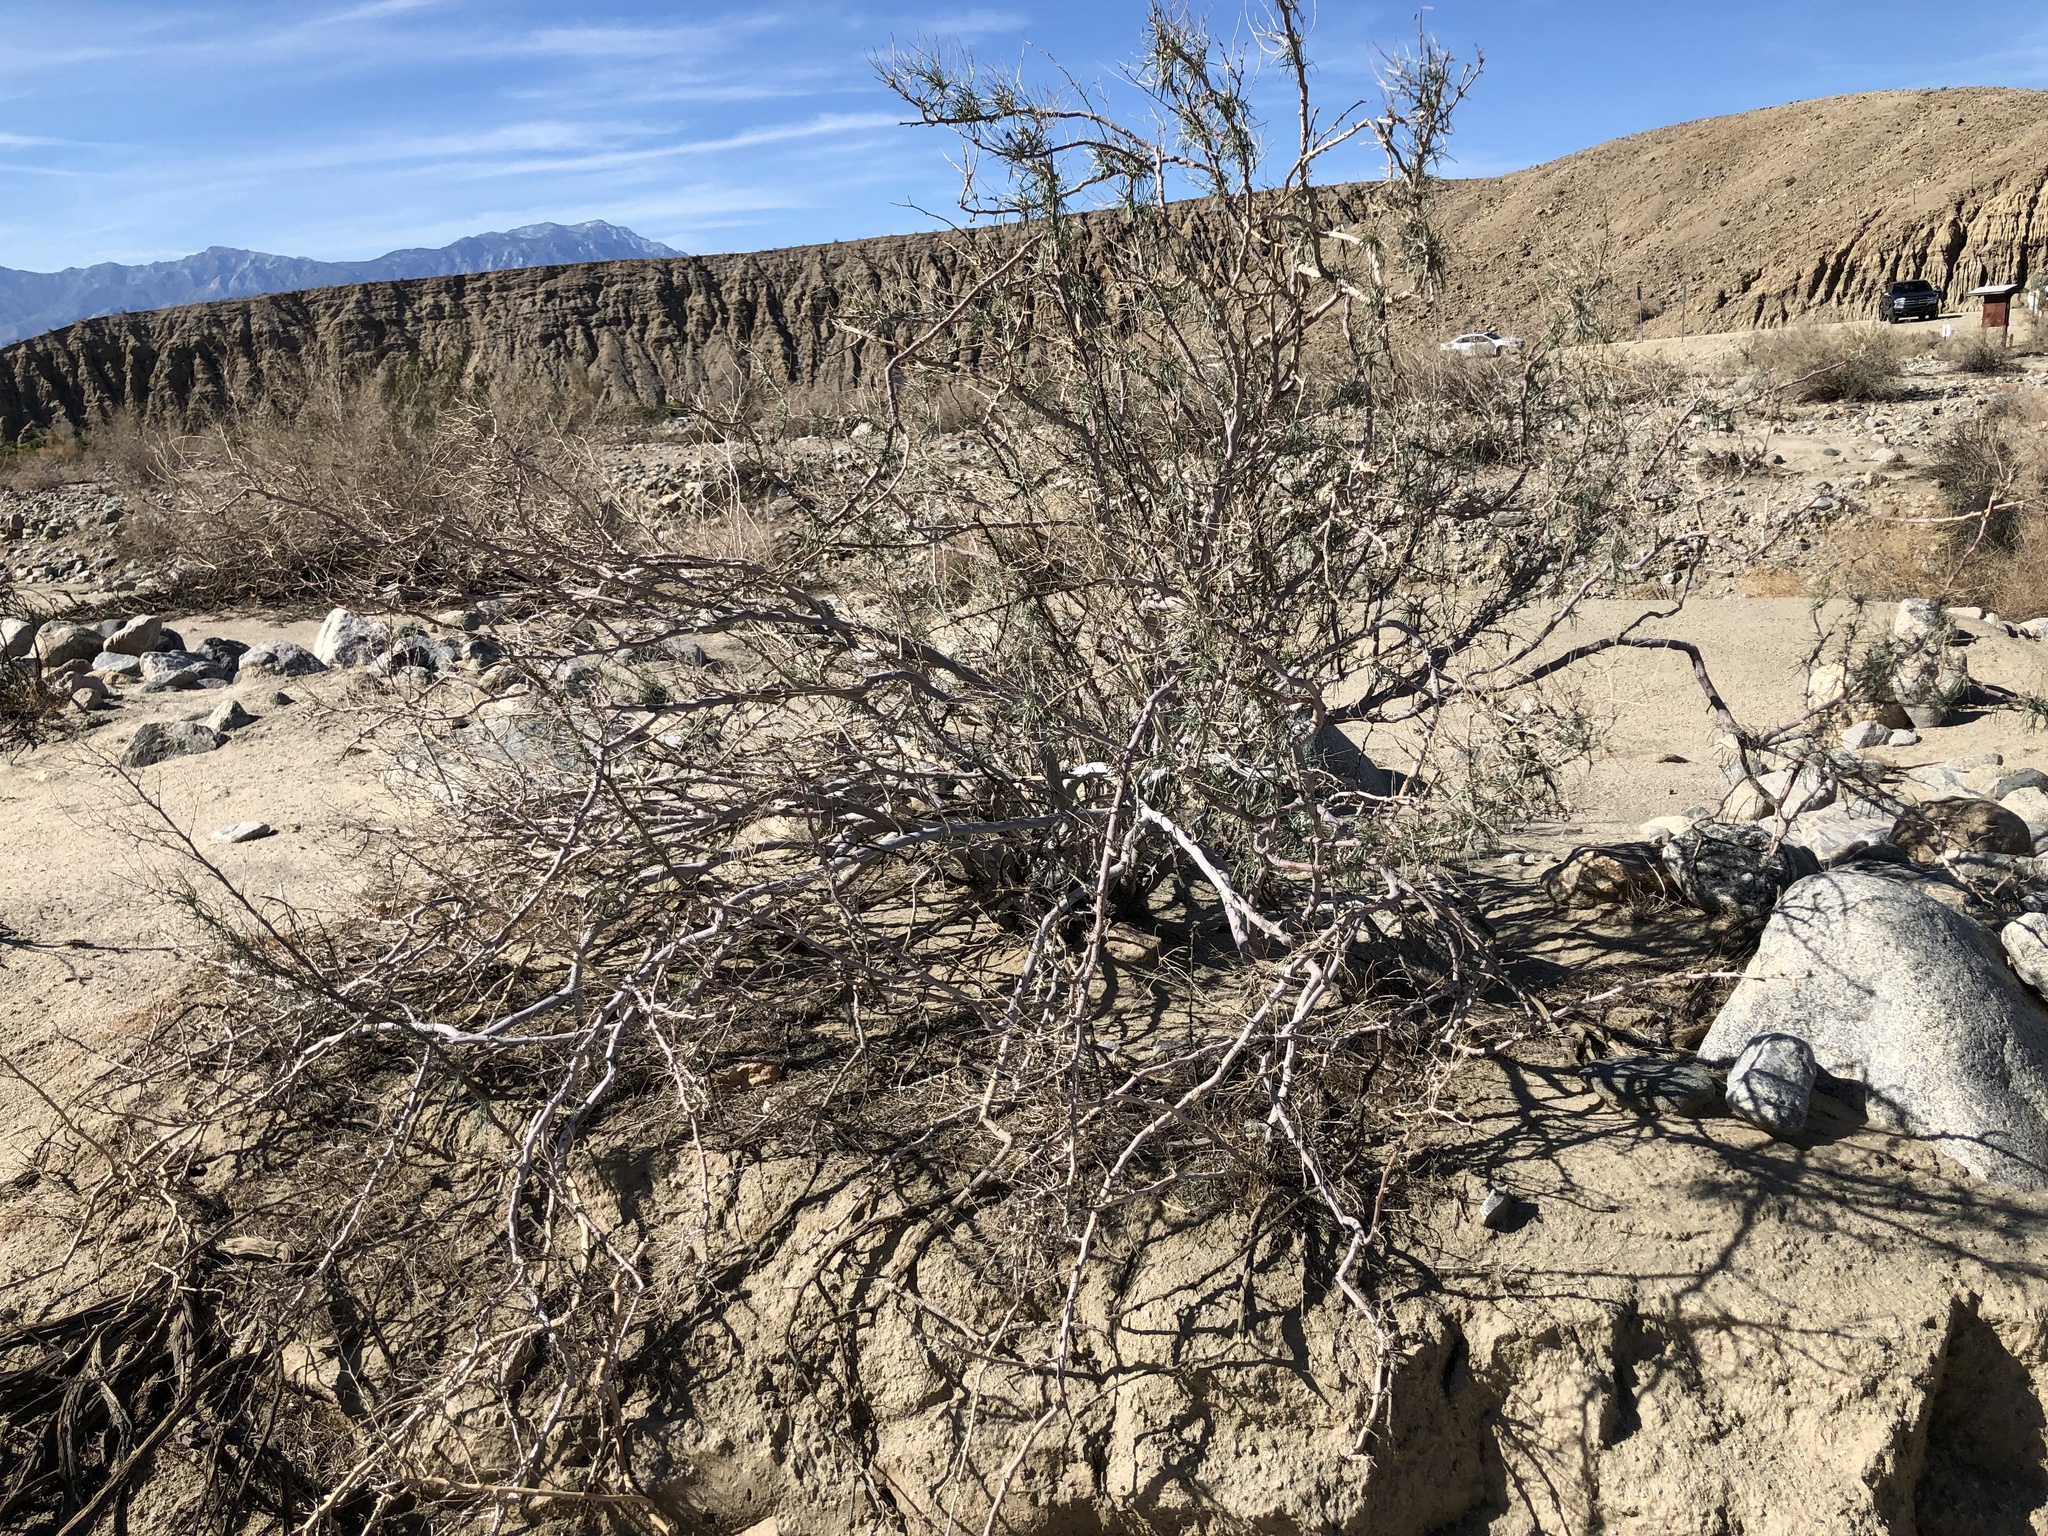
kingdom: Plantae
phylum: Tracheophyta
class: Magnoliopsida
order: Fabales
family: Fabaceae
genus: Psorothamnus
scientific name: Psorothamnus schottii
